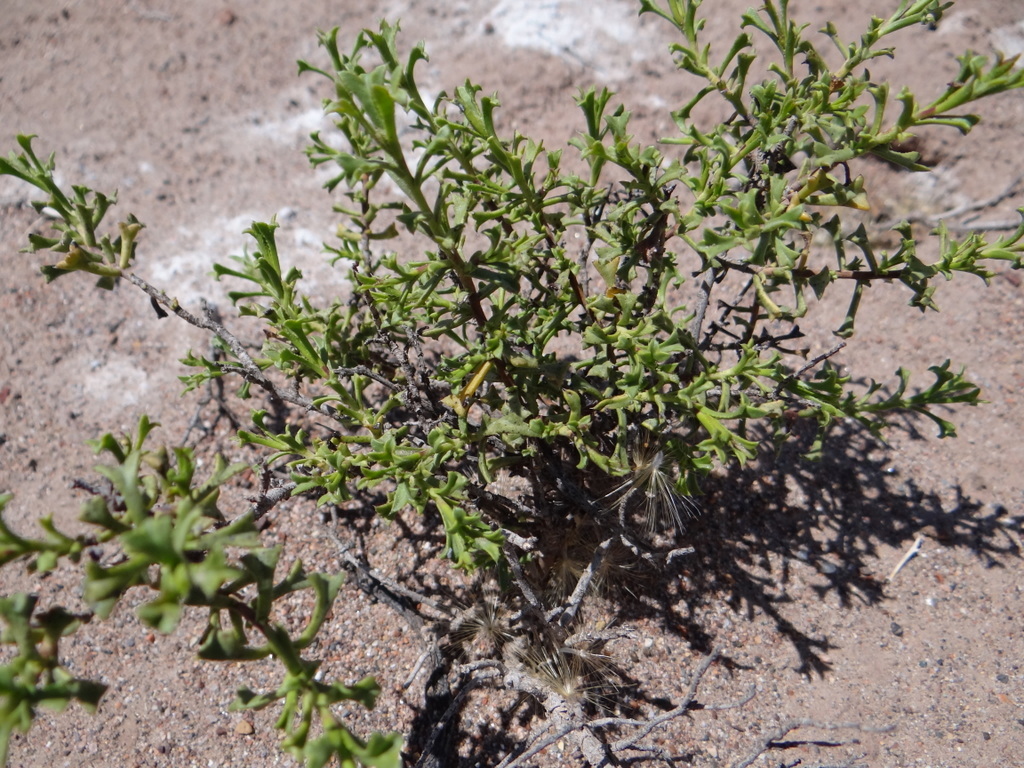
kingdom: Plantae
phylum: Tracheophyta
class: Magnoliopsida
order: Boraginales
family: Ehretiaceae
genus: Ehretia
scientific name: Ehretia cortesia
